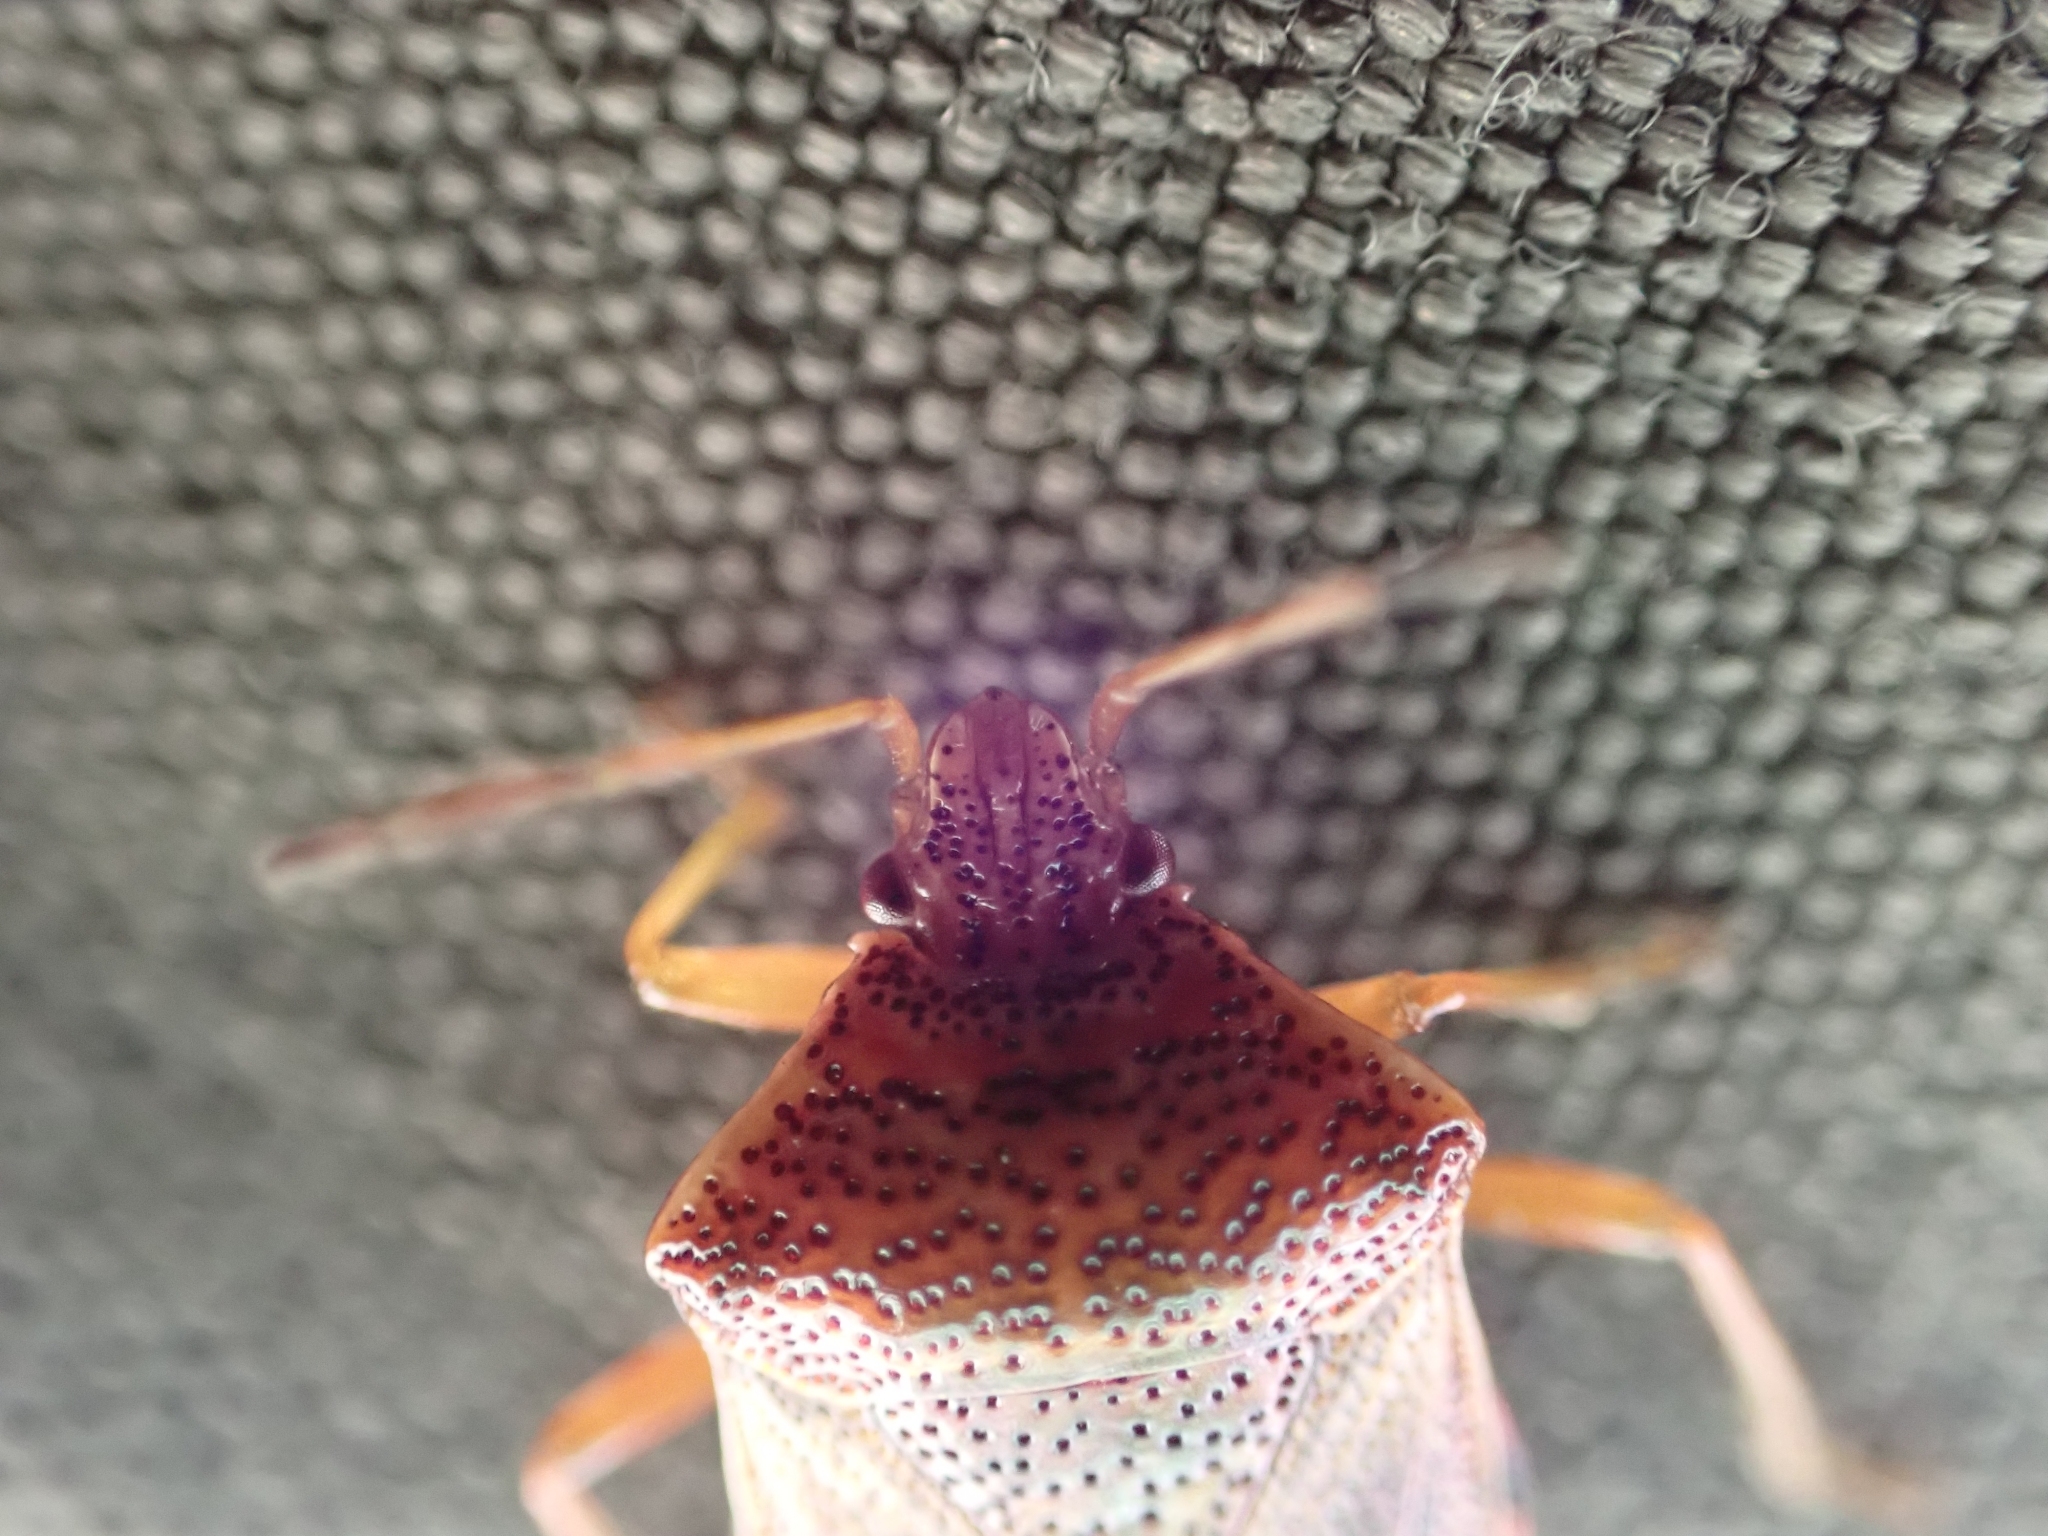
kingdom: Animalia
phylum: Arthropoda
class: Insecta
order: Hemiptera
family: Acanthosomatidae
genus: Elasmucha
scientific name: Elasmucha lateralis
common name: Shield bug
